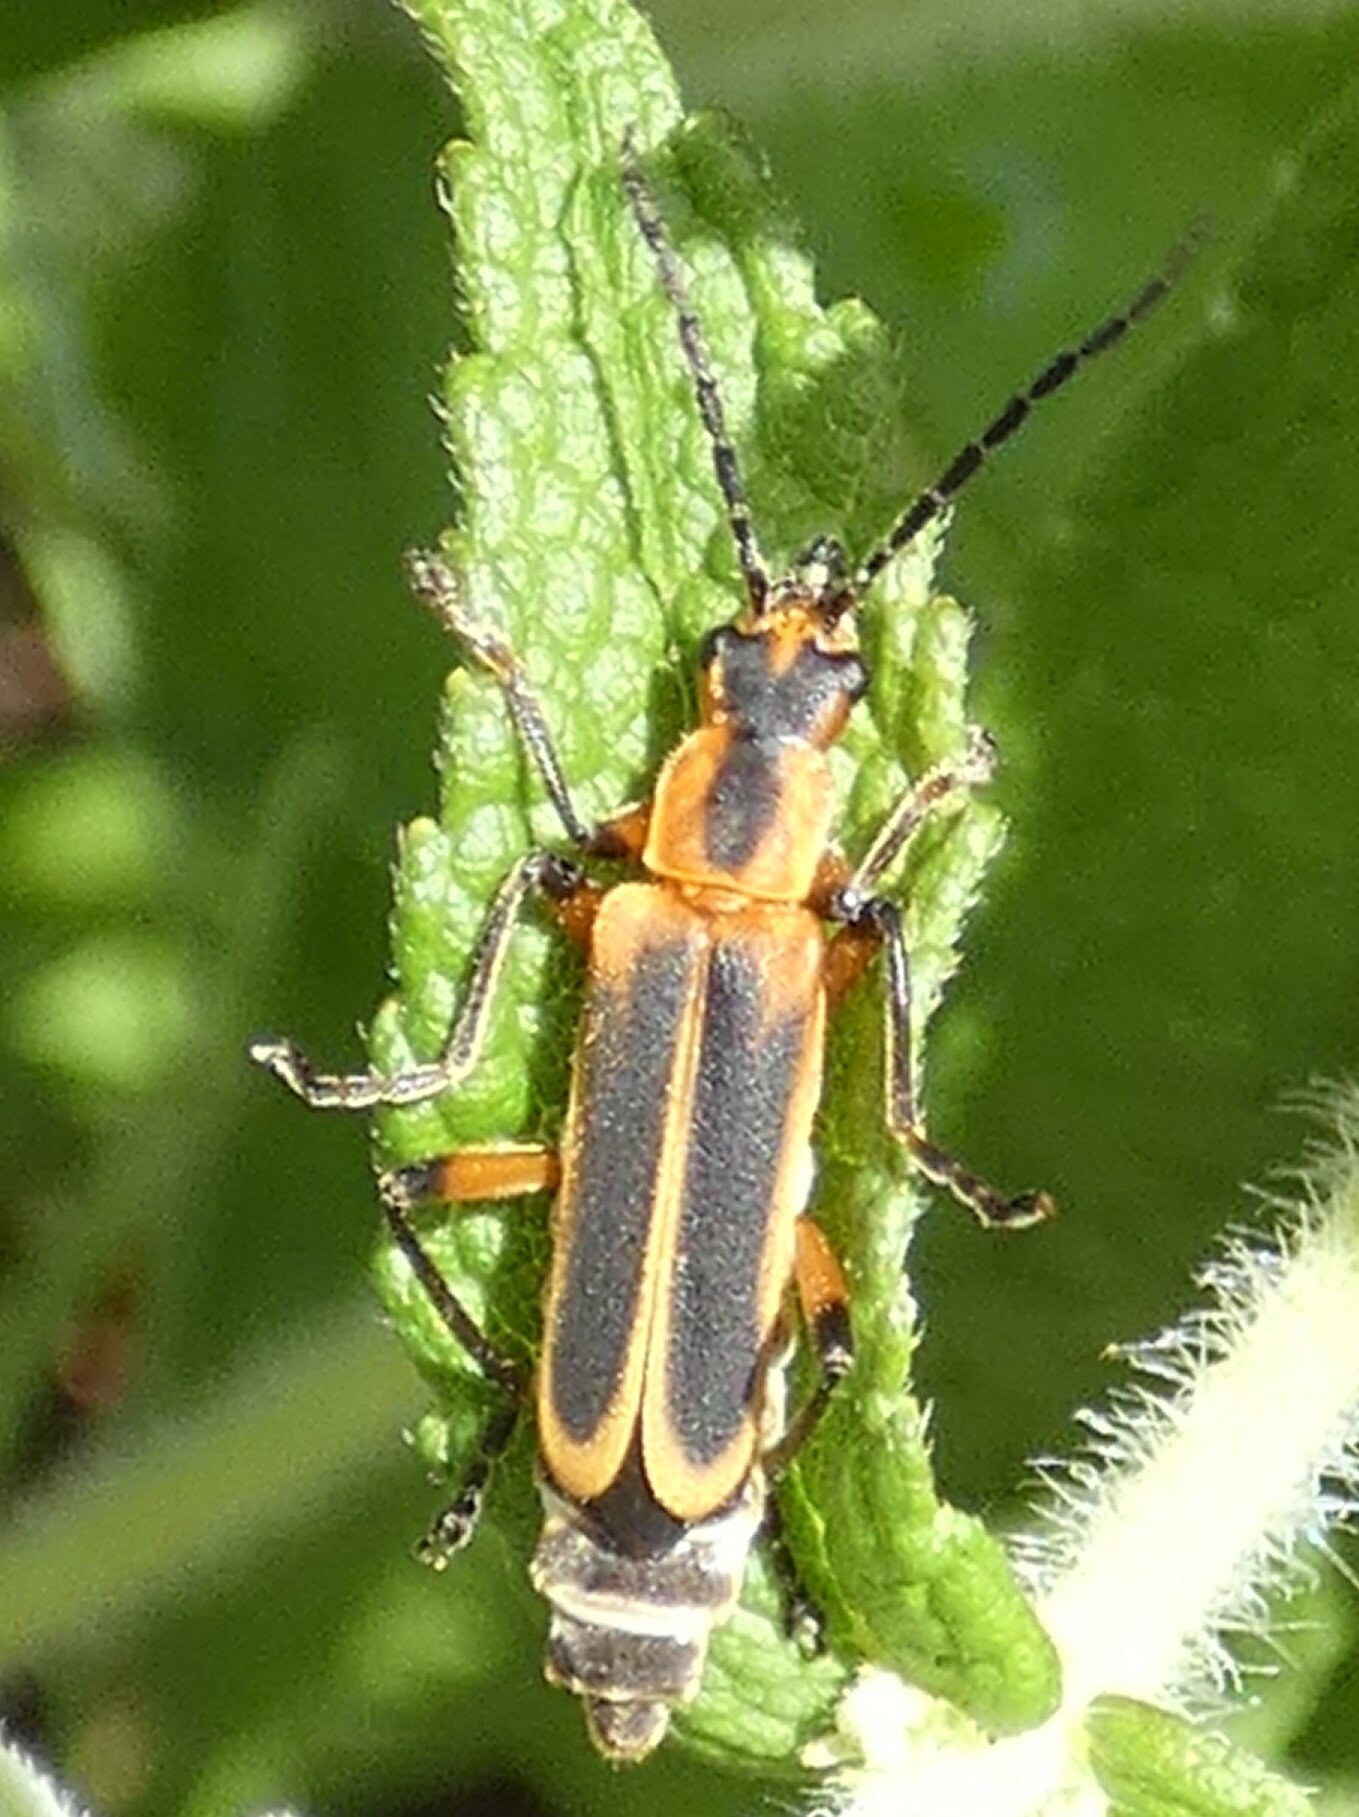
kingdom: Animalia
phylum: Arthropoda
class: Insecta
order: Coleoptera
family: Cantharidae
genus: Chauliognathus
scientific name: Chauliognathus marginatus
